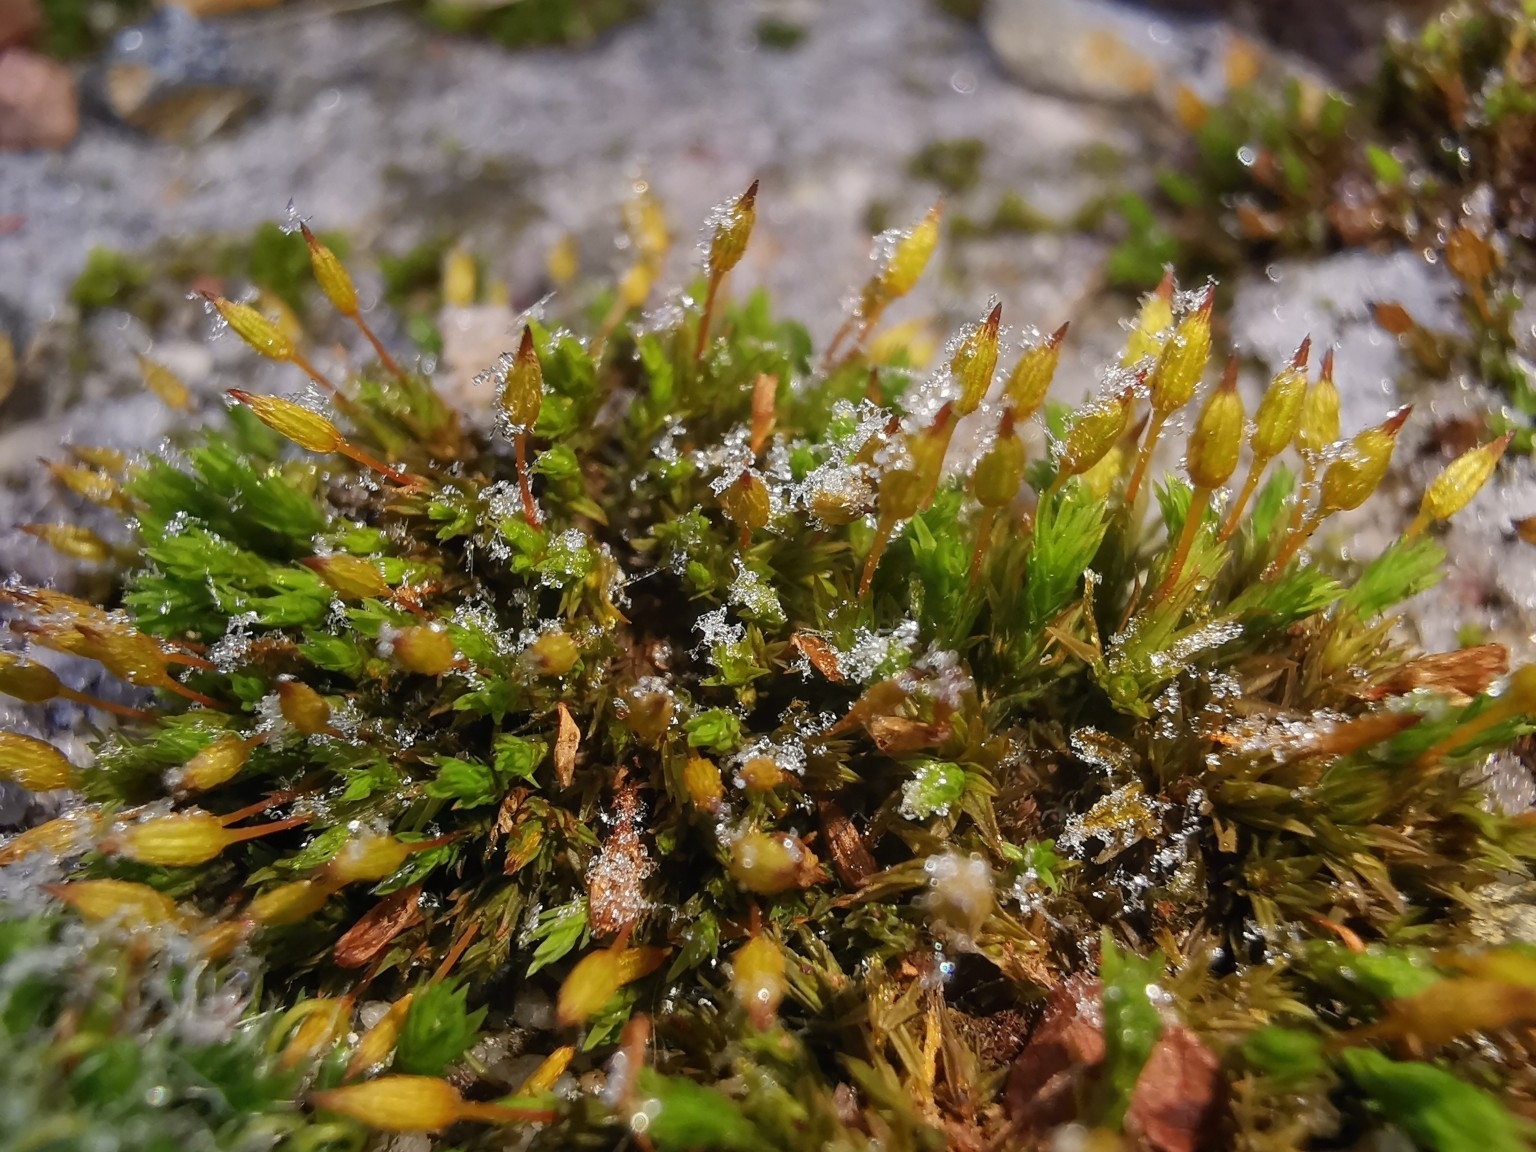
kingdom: Plantae
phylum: Bryophyta
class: Bryopsida
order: Orthotrichales
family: Orthotrichaceae
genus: Orthotrichum
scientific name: Orthotrichum anomalum
